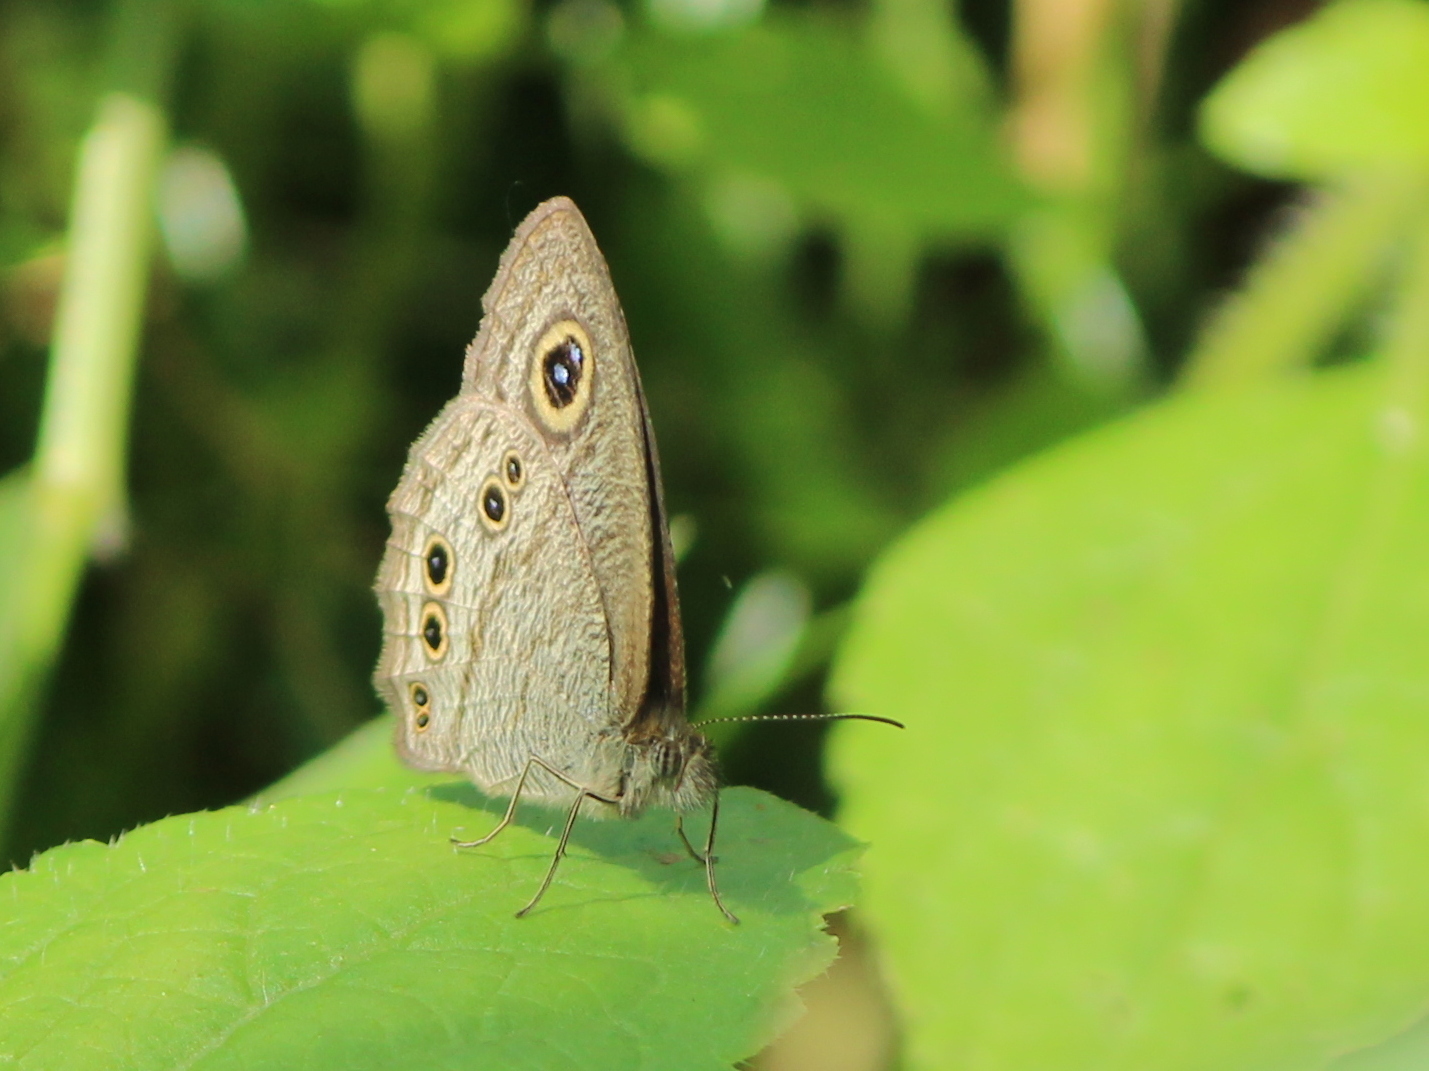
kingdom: Animalia
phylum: Arthropoda
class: Insecta
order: Lepidoptera
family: Nymphalidae
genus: Ypthima
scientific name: Ypthima baldus
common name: Common five-ring
